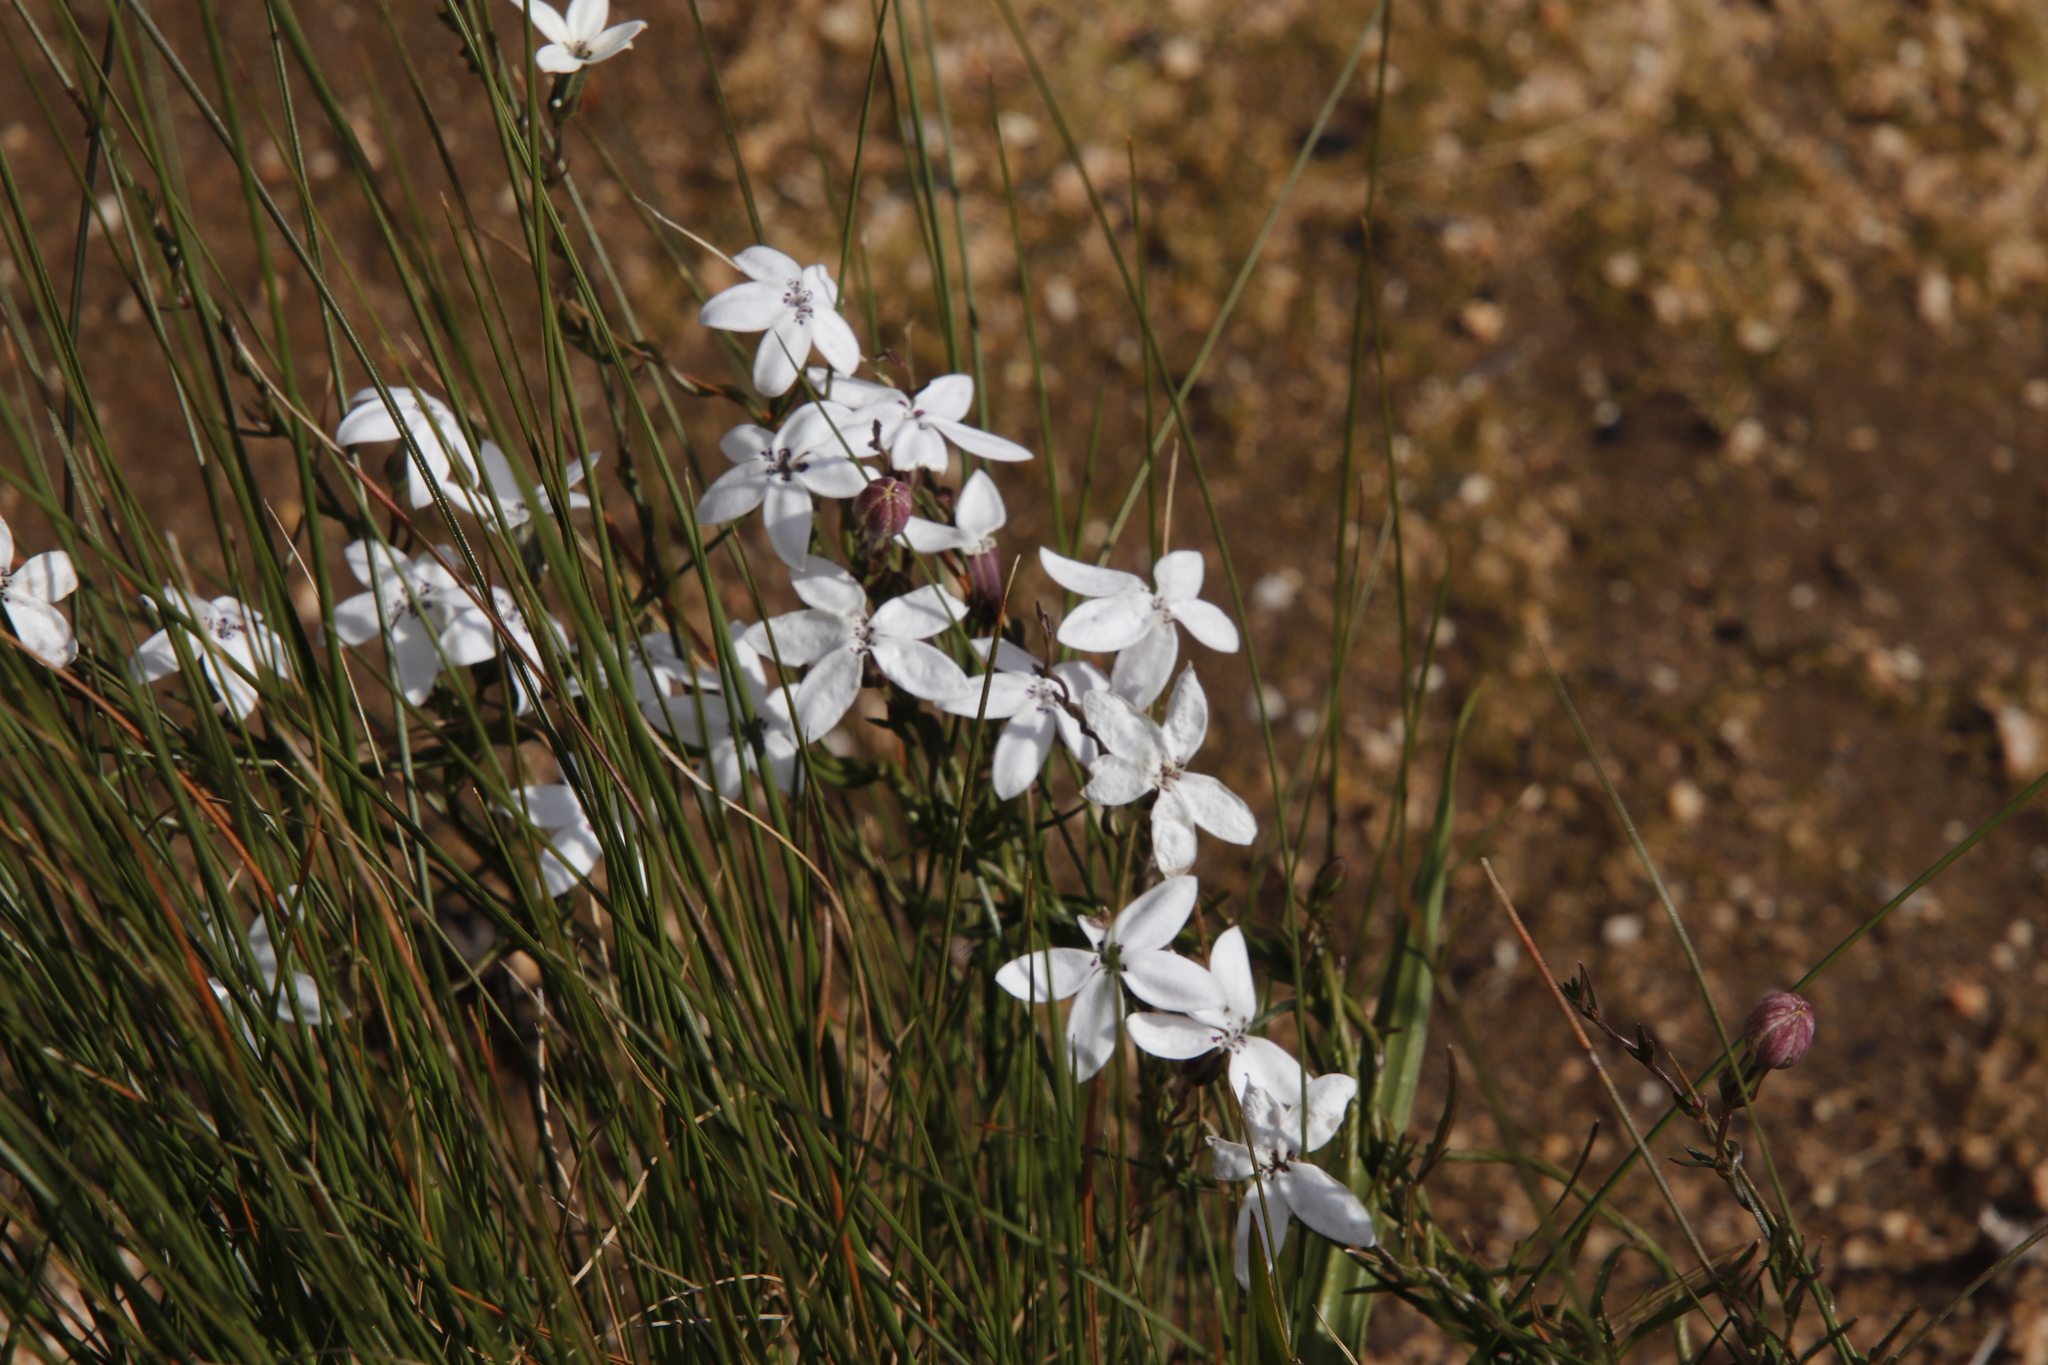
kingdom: Plantae
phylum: Tracheophyta
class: Magnoliopsida
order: Asterales
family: Campanulaceae
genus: Cyphia
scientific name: Cyphia volubilis
